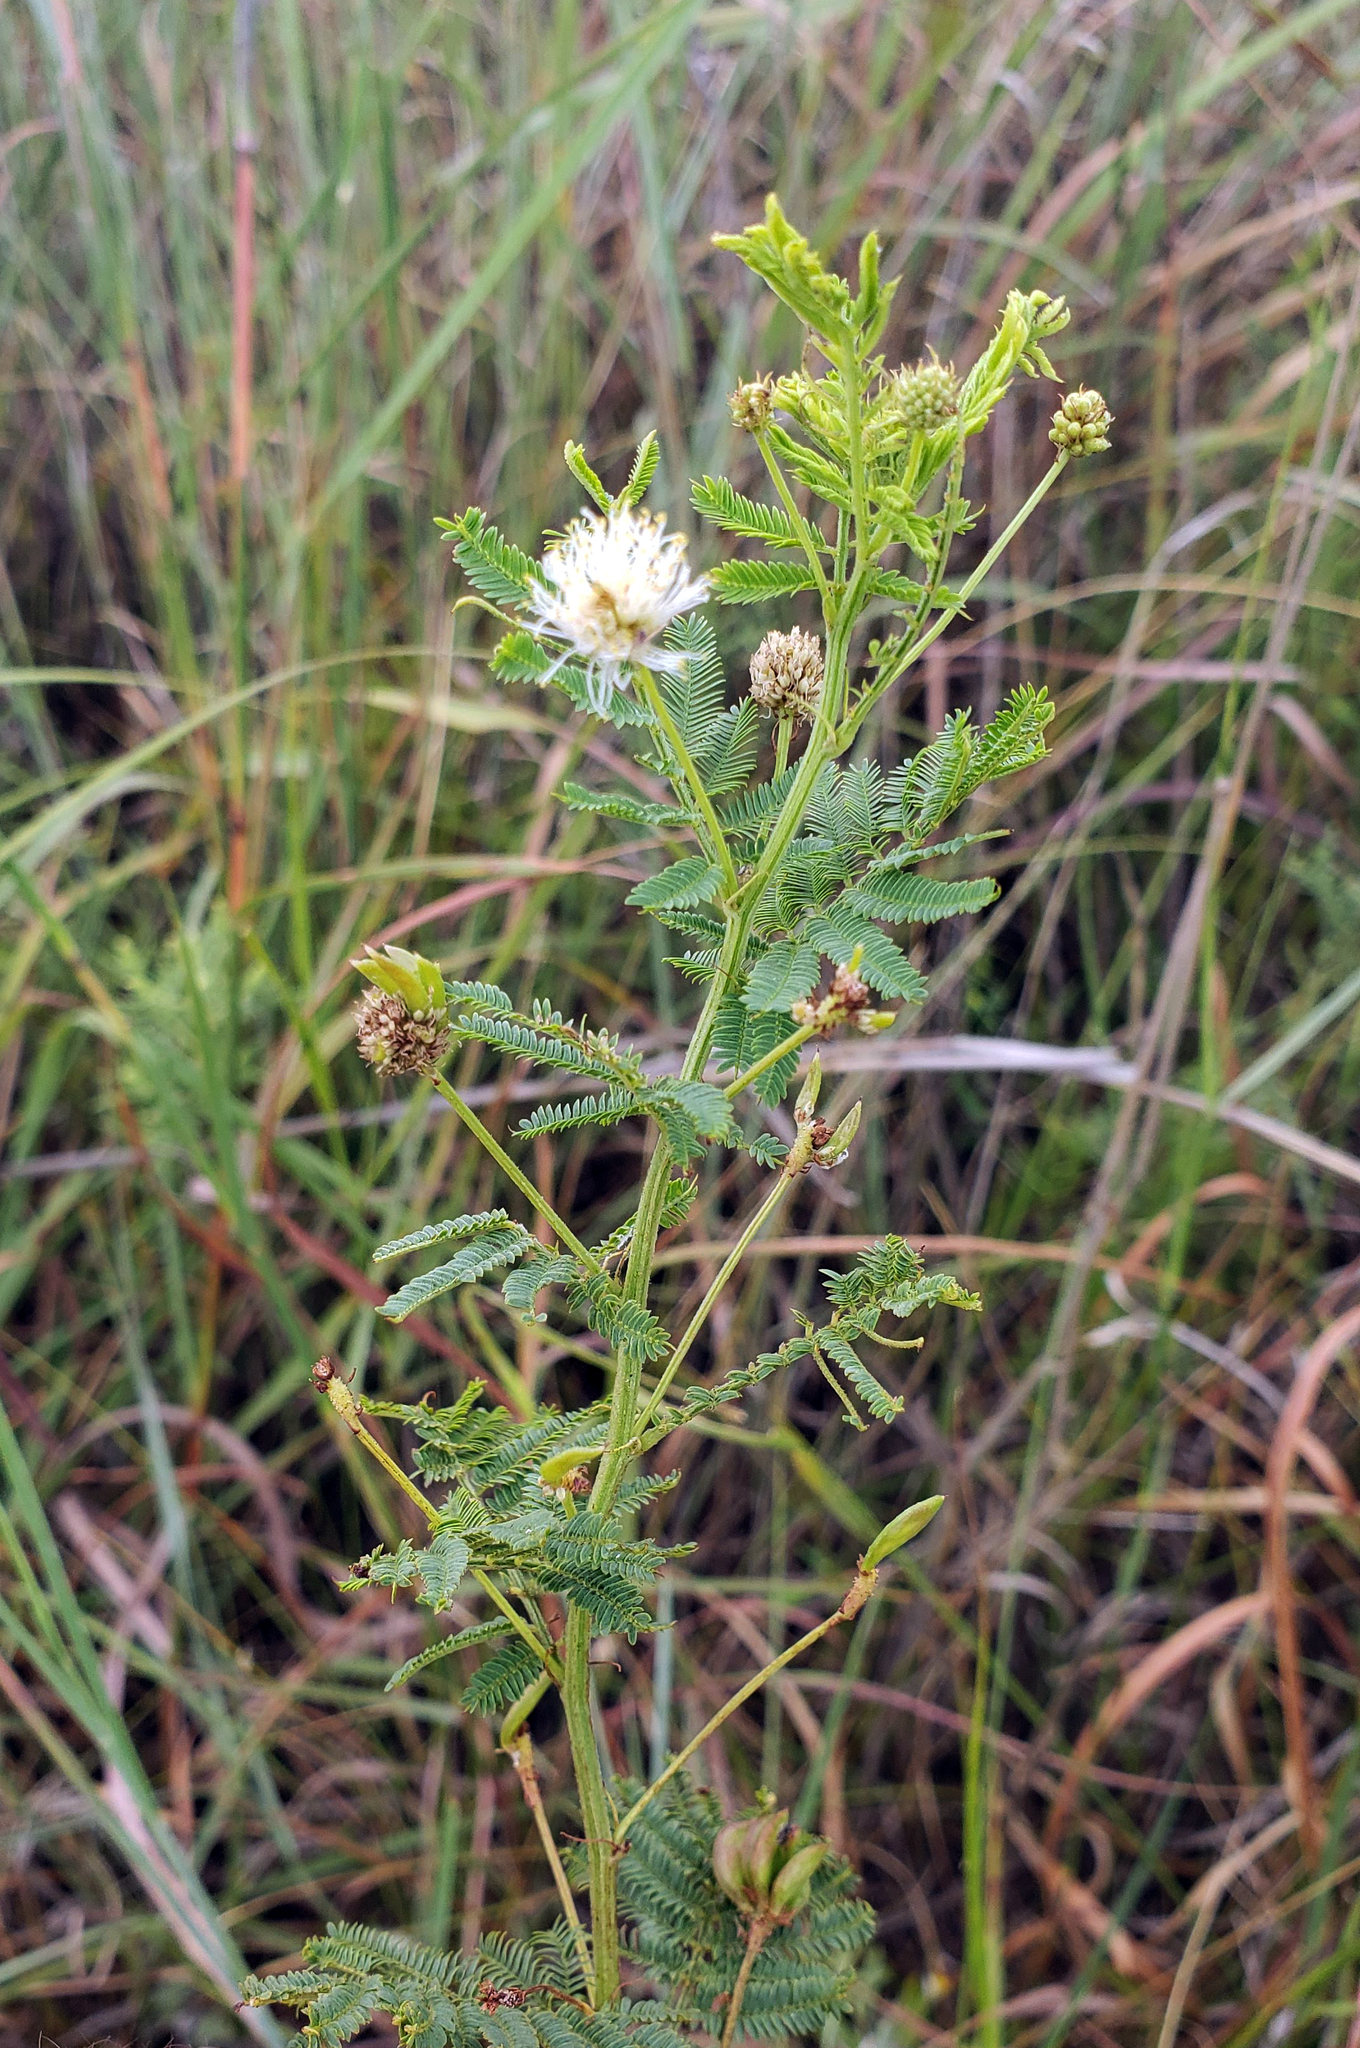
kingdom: Plantae
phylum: Tracheophyta
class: Magnoliopsida
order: Fabales
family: Fabaceae
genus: Desmanthus
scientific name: Desmanthus illinoensis
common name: Illinois bundle-flower
